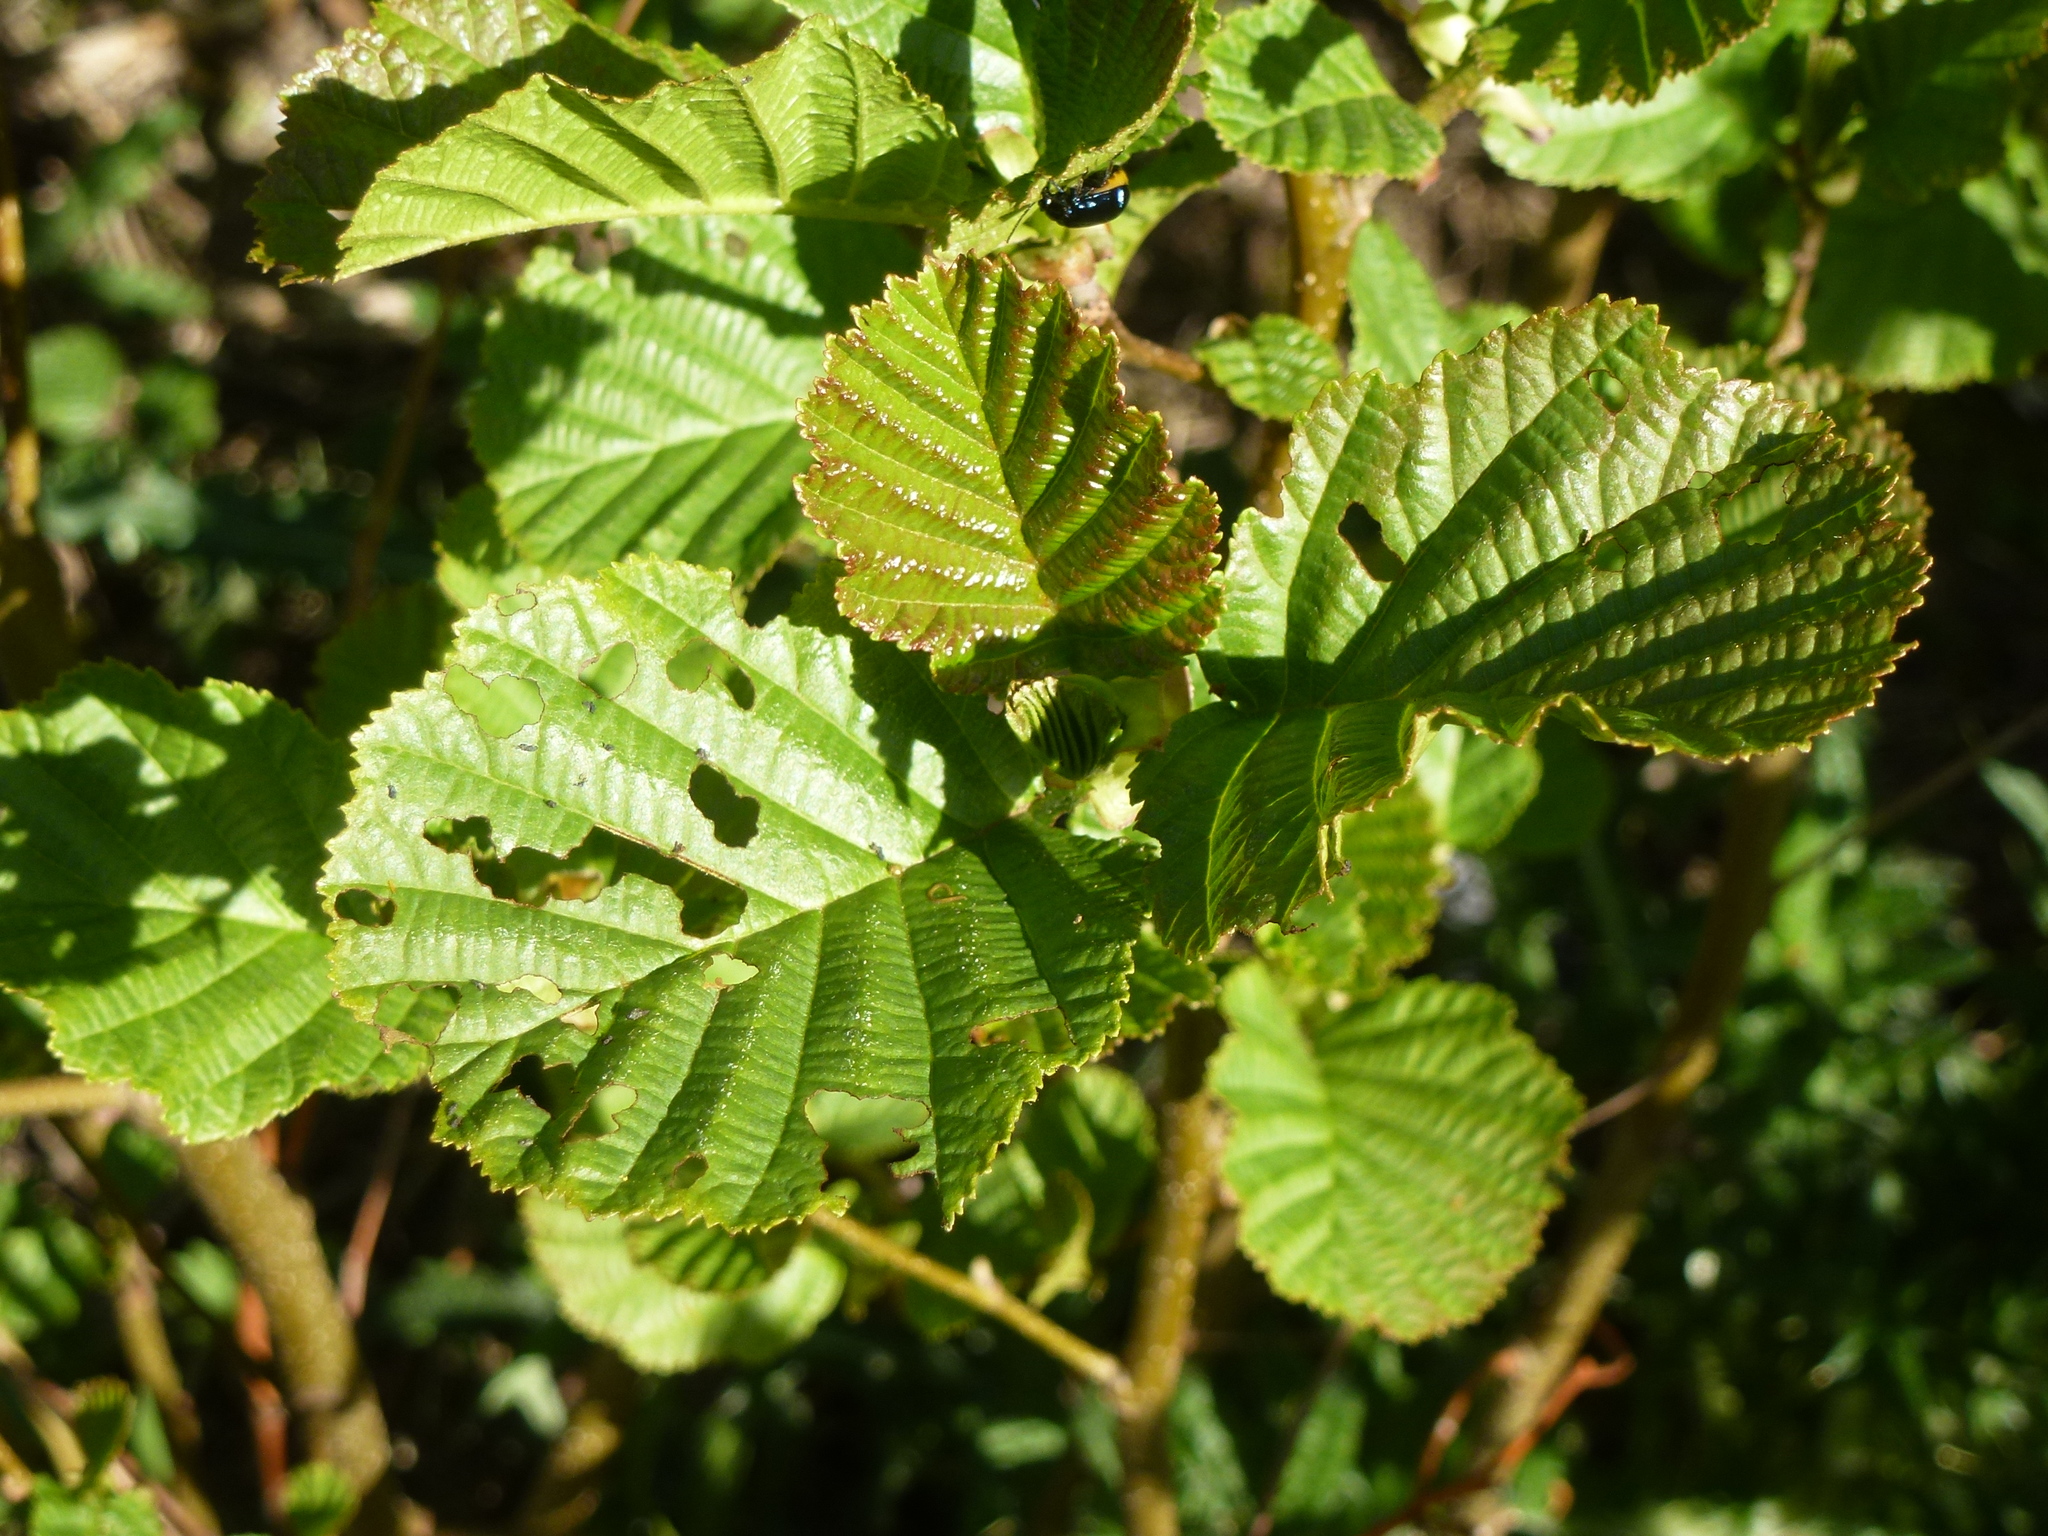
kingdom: Plantae
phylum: Tracheophyta
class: Magnoliopsida
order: Fagales
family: Betulaceae
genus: Alnus
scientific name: Alnus glutinosa
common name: Black alder
